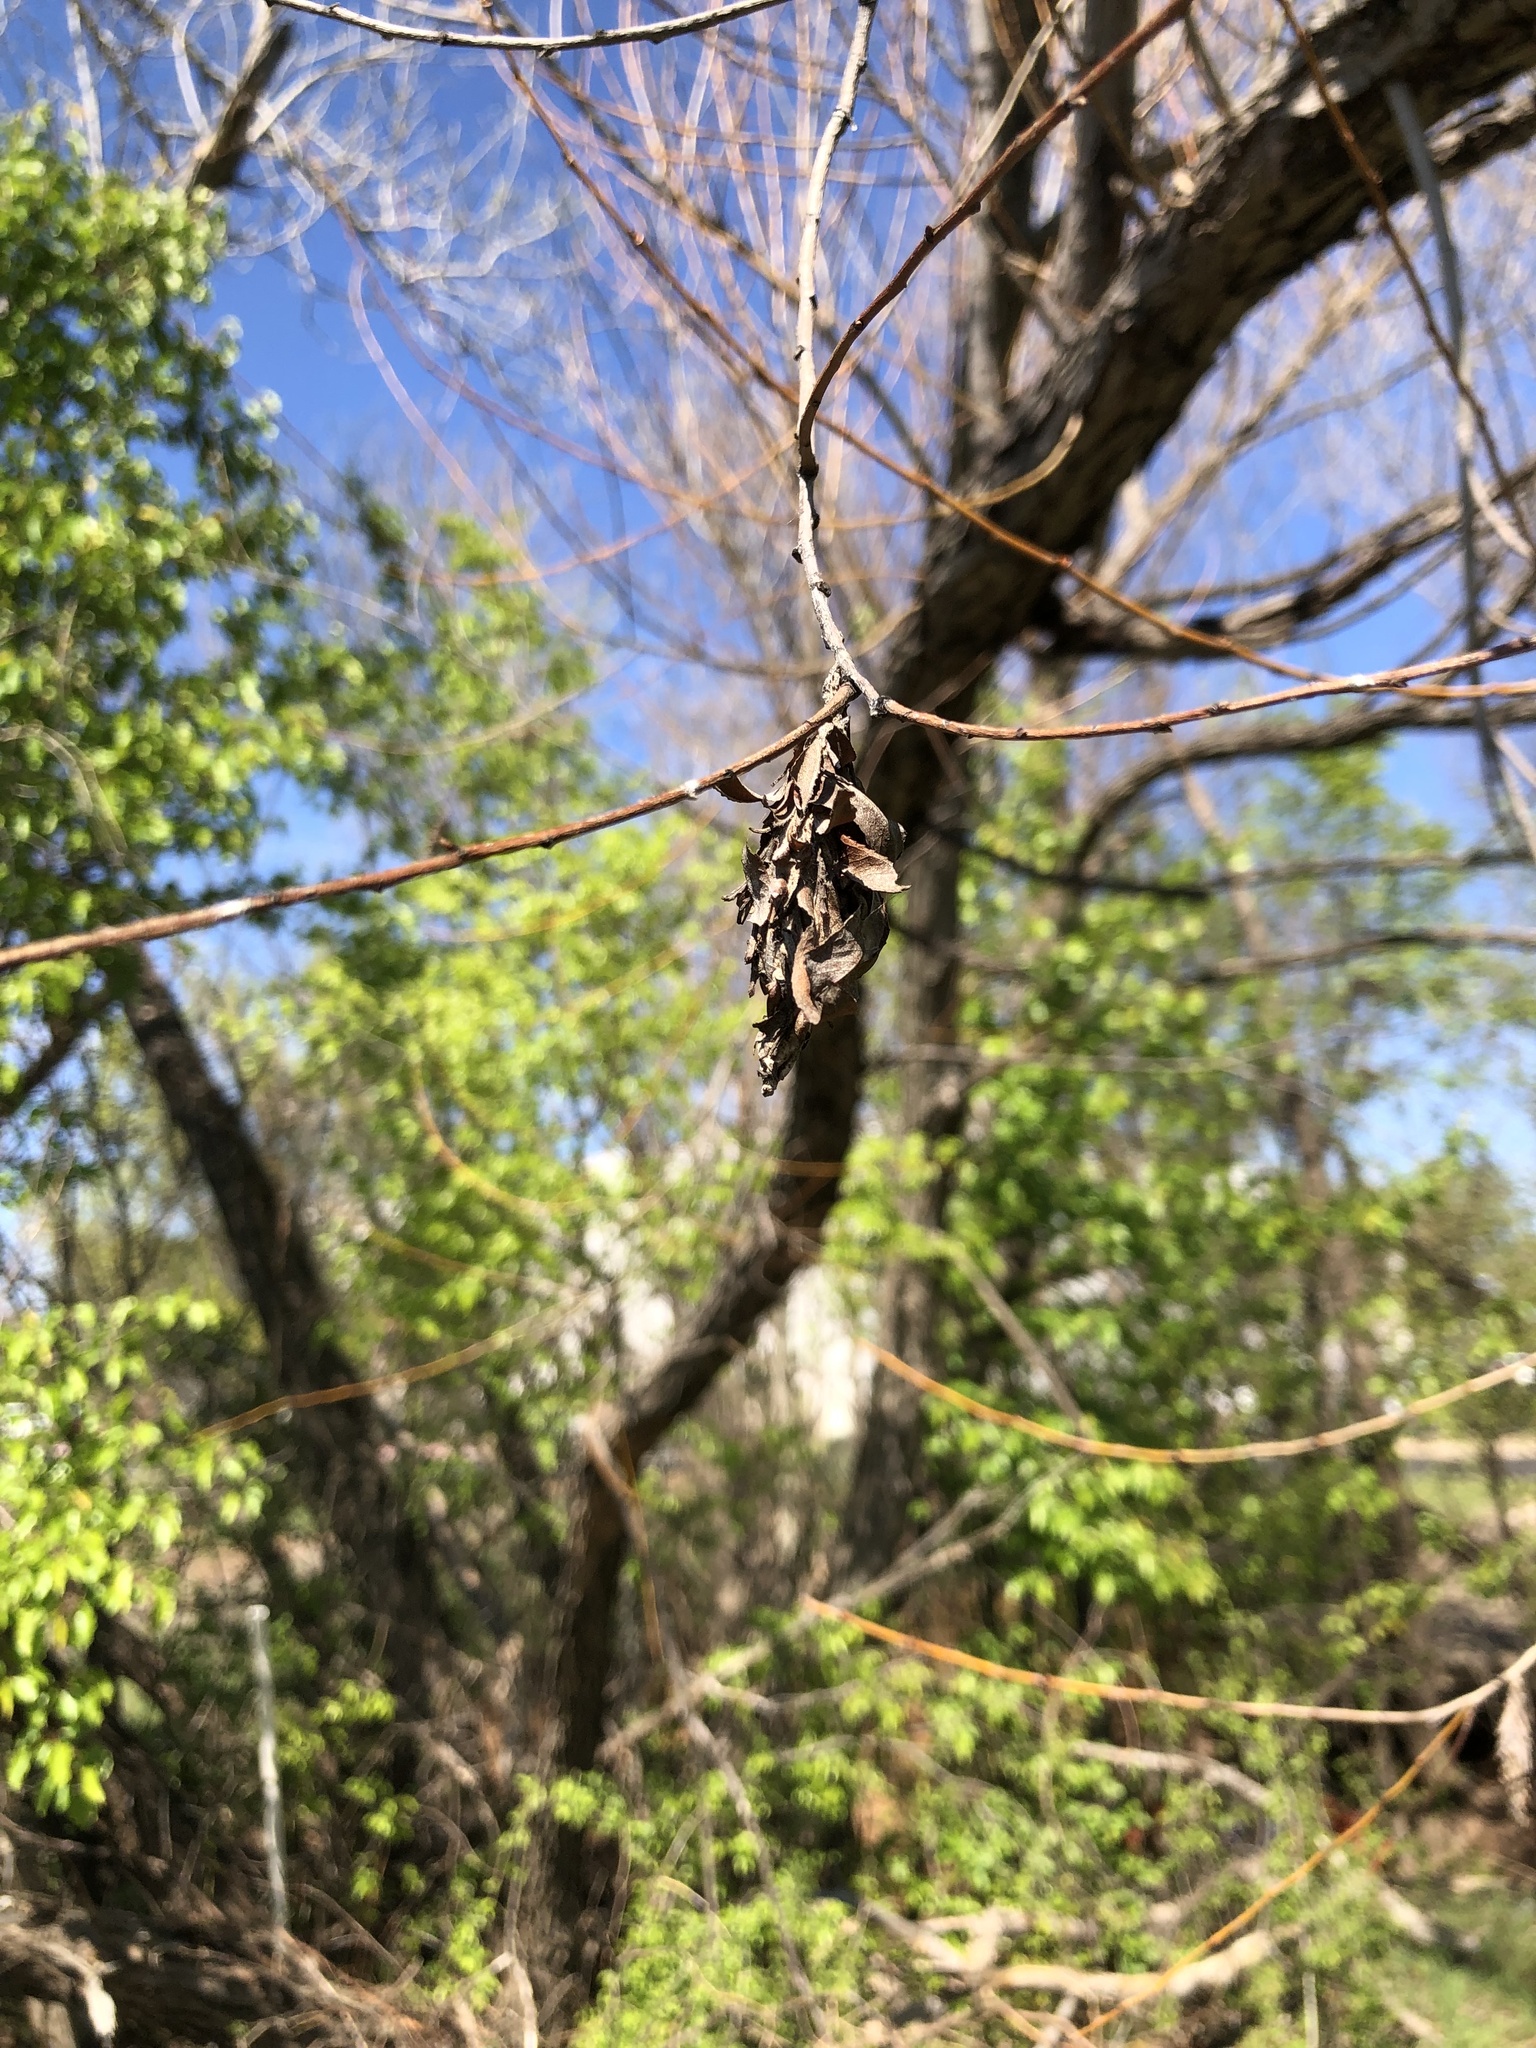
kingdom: Animalia
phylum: Arthropoda
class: Insecta
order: Lepidoptera
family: Psychidae
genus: Thyridopteryx
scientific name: Thyridopteryx ephemeraeformis
